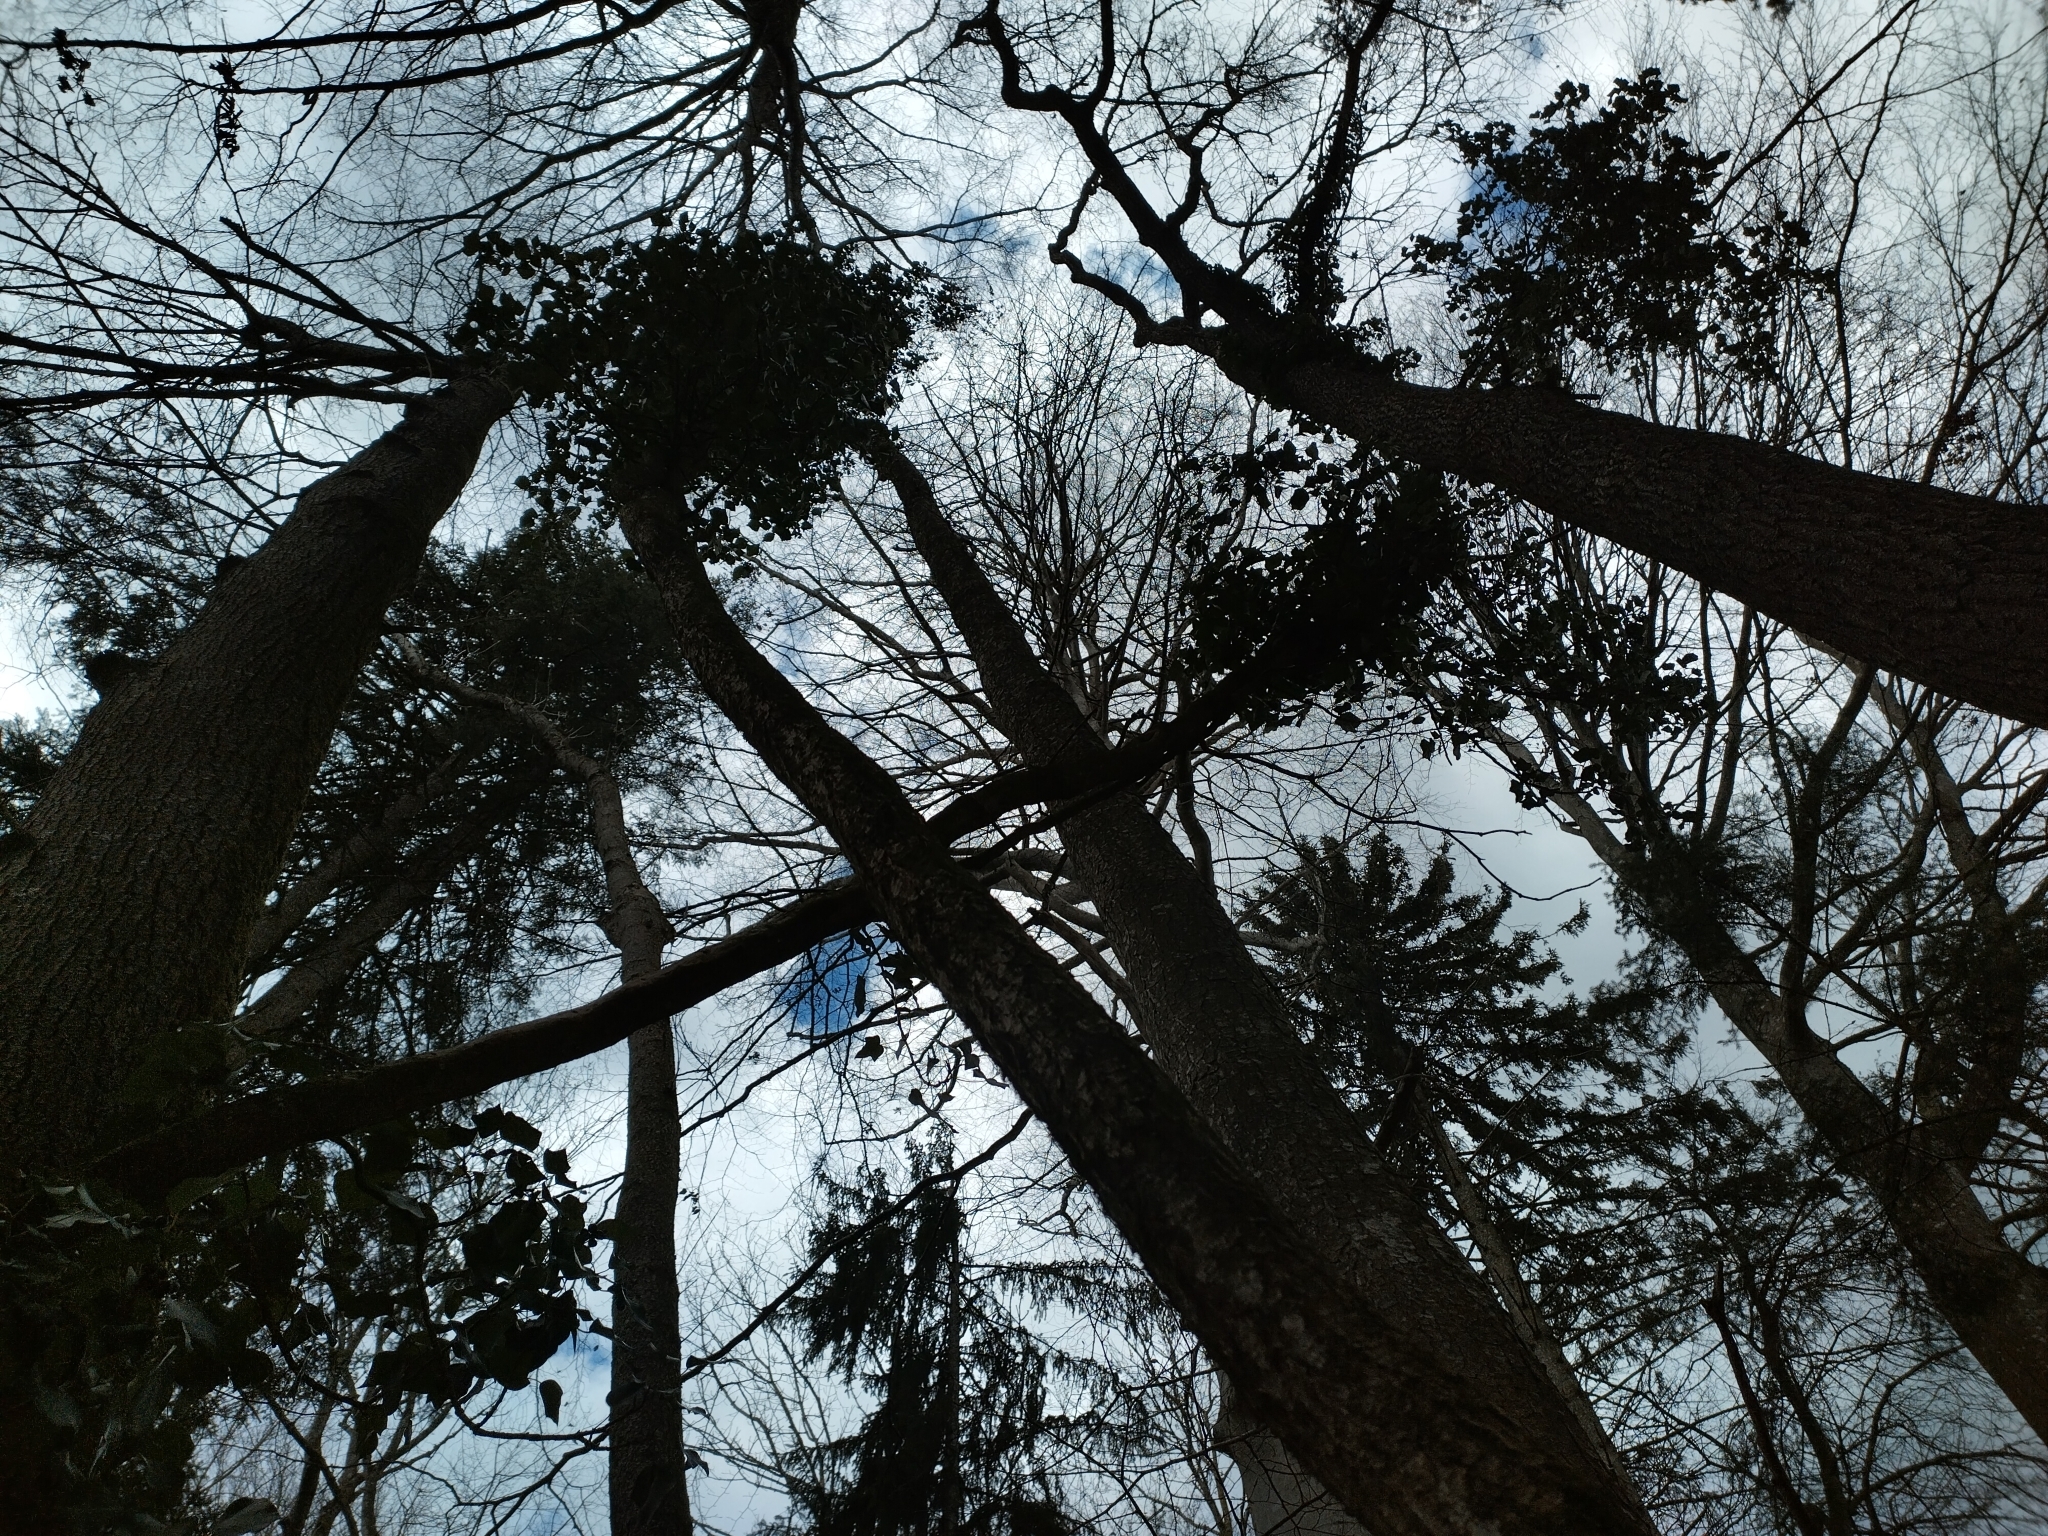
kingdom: Plantae
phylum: Tracheophyta
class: Magnoliopsida
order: Apiales
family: Araliaceae
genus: Hedera
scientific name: Hedera helix
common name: Ivy
